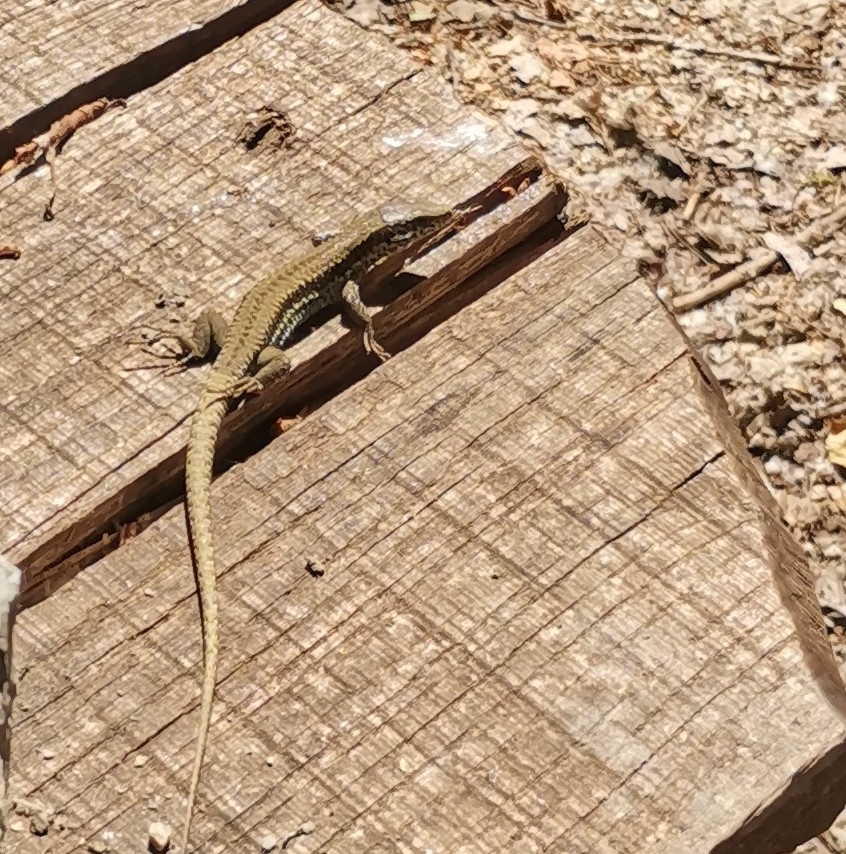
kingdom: Animalia
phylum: Chordata
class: Squamata
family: Lacertidae
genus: Podarcis
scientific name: Podarcis muralis
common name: Common wall lizard
